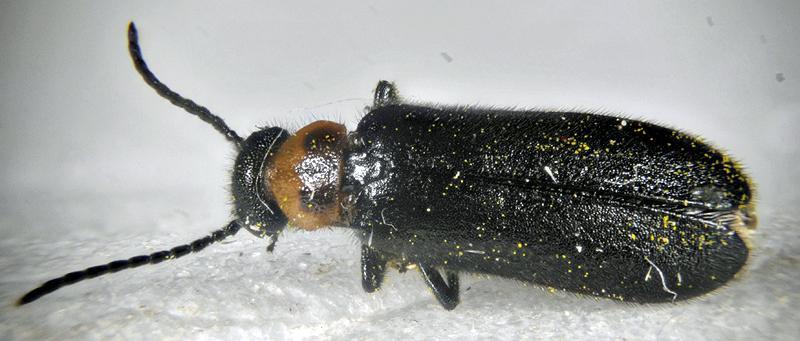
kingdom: Animalia
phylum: Arthropoda
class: Insecta
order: Coleoptera
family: Meloidae
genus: Nemognatha
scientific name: Nemognatha nemorensis
